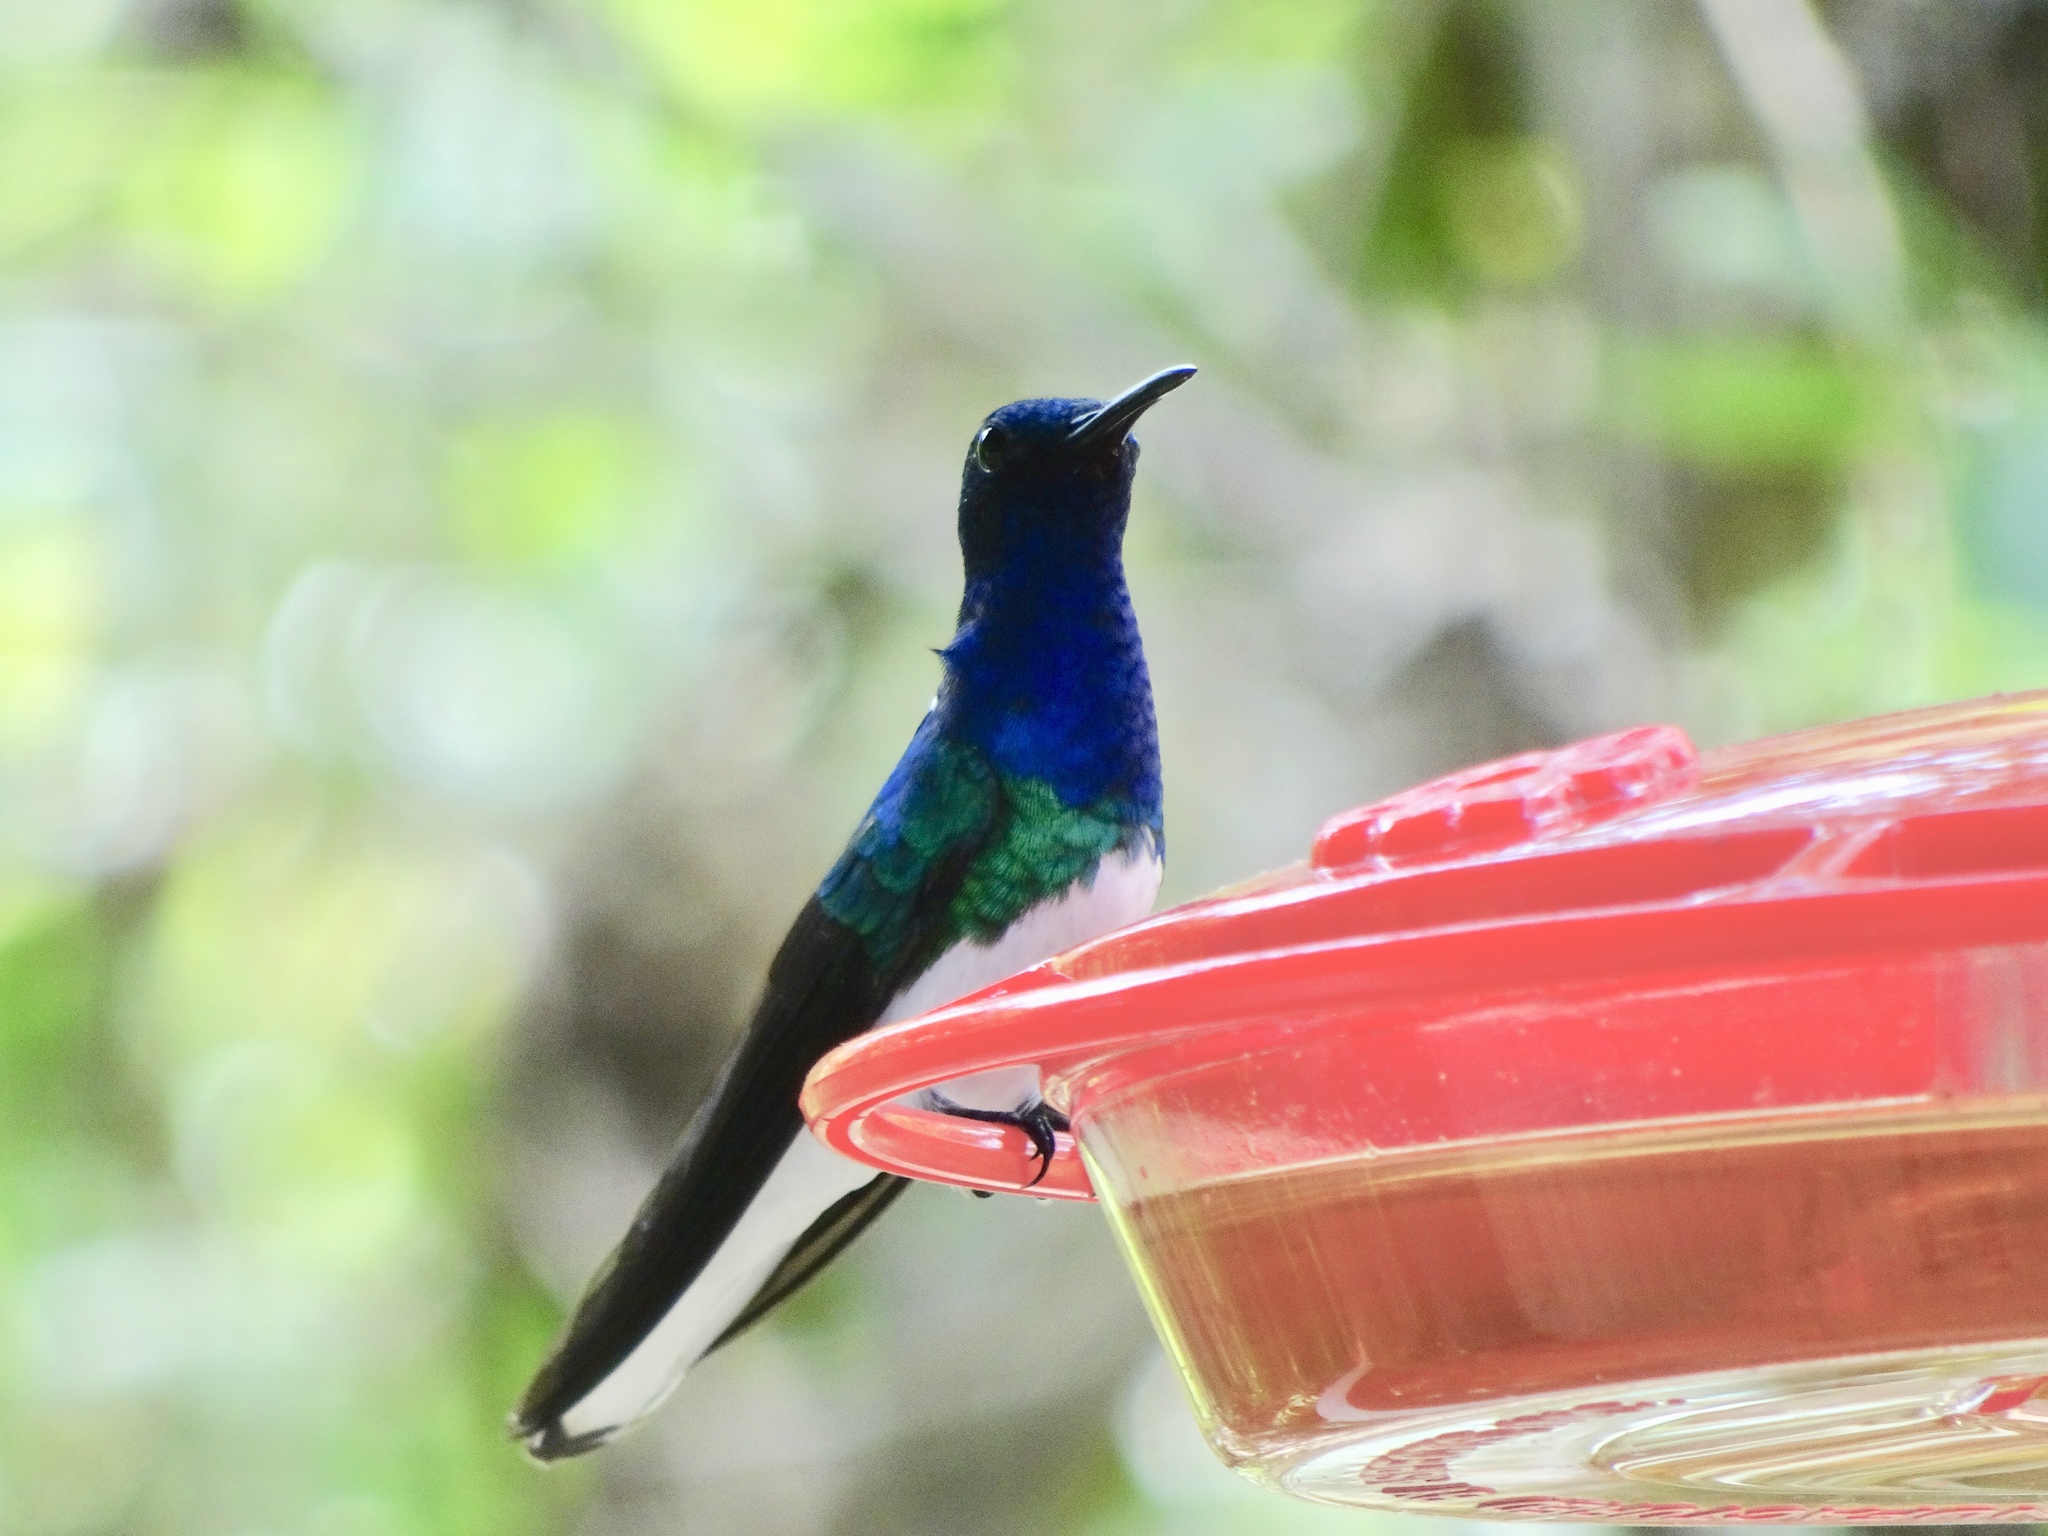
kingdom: Animalia
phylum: Chordata
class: Aves
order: Apodiformes
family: Trochilidae
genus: Florisuga
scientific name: Florisuga mellivora
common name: White-necked jacobin
